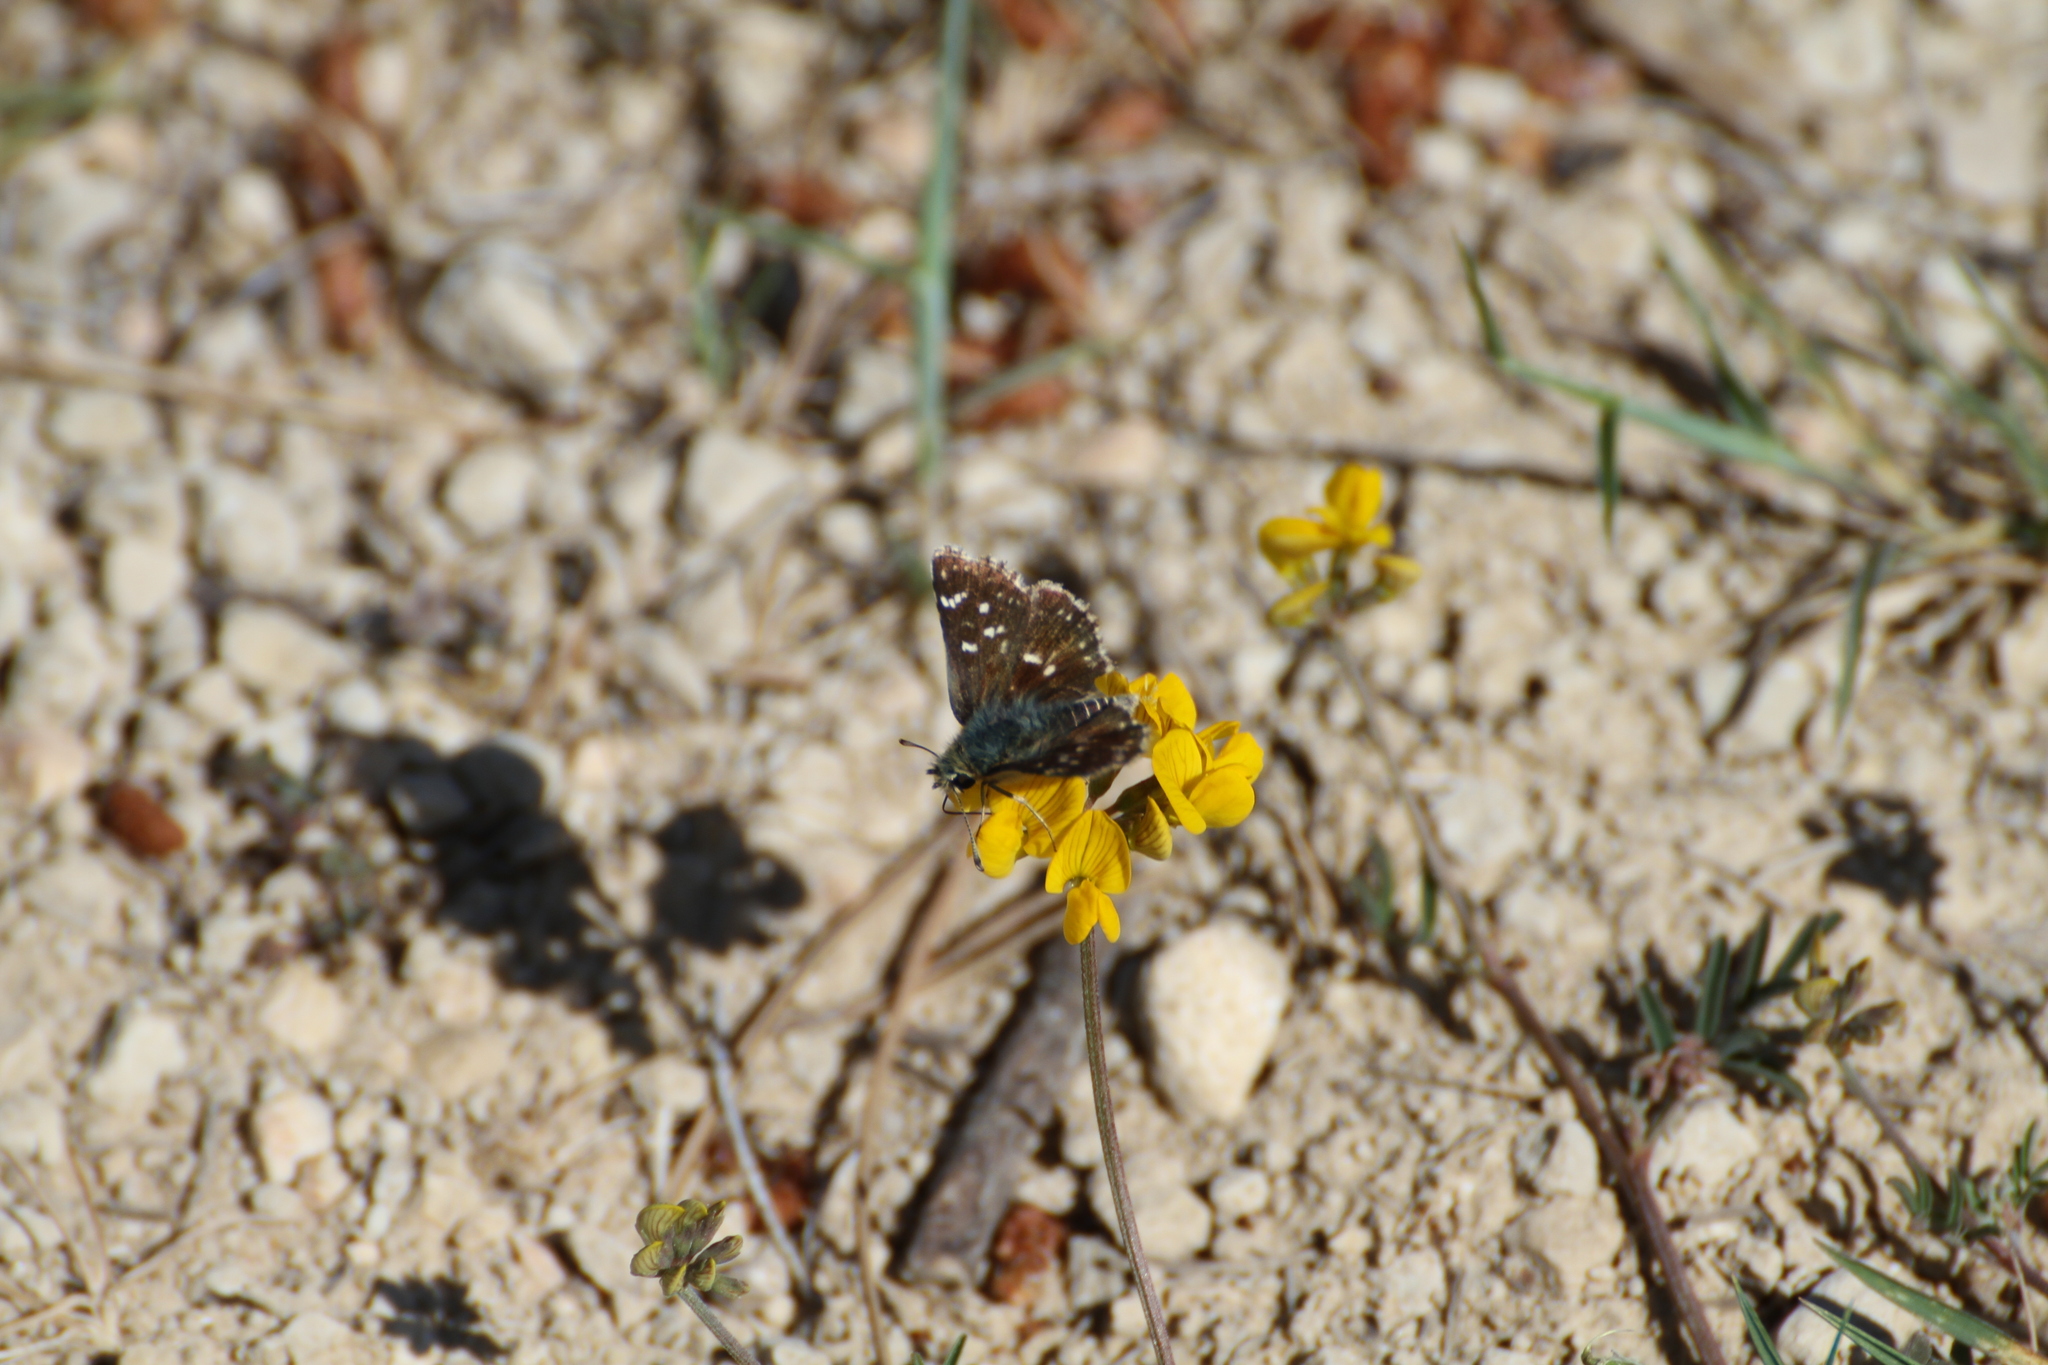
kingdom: Animalia
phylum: Arthropoda
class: Insecta
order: Lepidoptera
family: Hesperiidae
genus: Spialia
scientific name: Spialia sertorius
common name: Red underwing skipper
